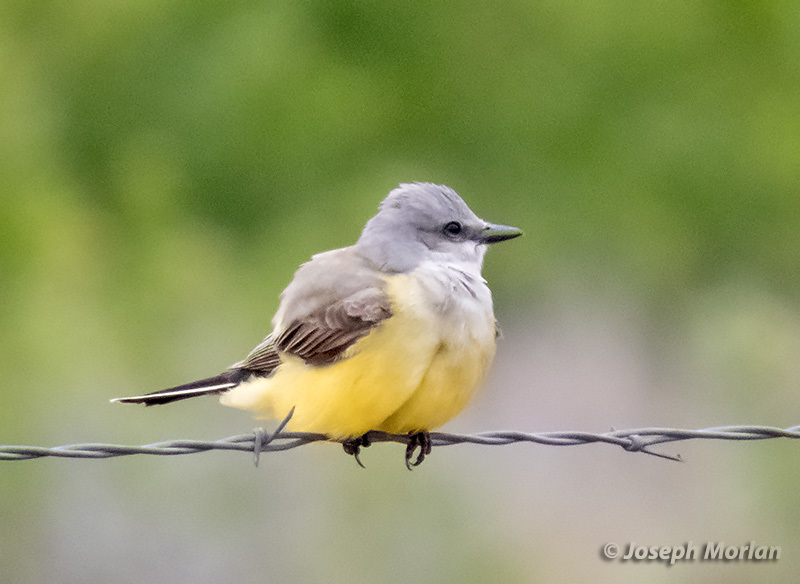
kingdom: Animalia
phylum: Chordata
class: Aves
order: Passeriformes
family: Tyrannidae
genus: Tyrannus
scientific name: Tyrannus verticalis
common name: Western kingbird
